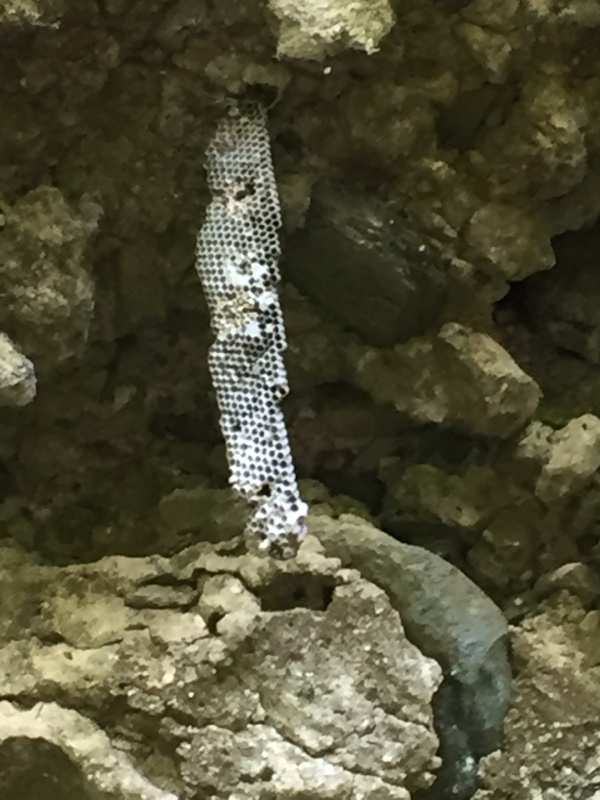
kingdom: Animalia
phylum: Arthropoda
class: Insecta
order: Hymenoptera
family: Eumenidae
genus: Polistes
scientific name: Polistes cubensis
